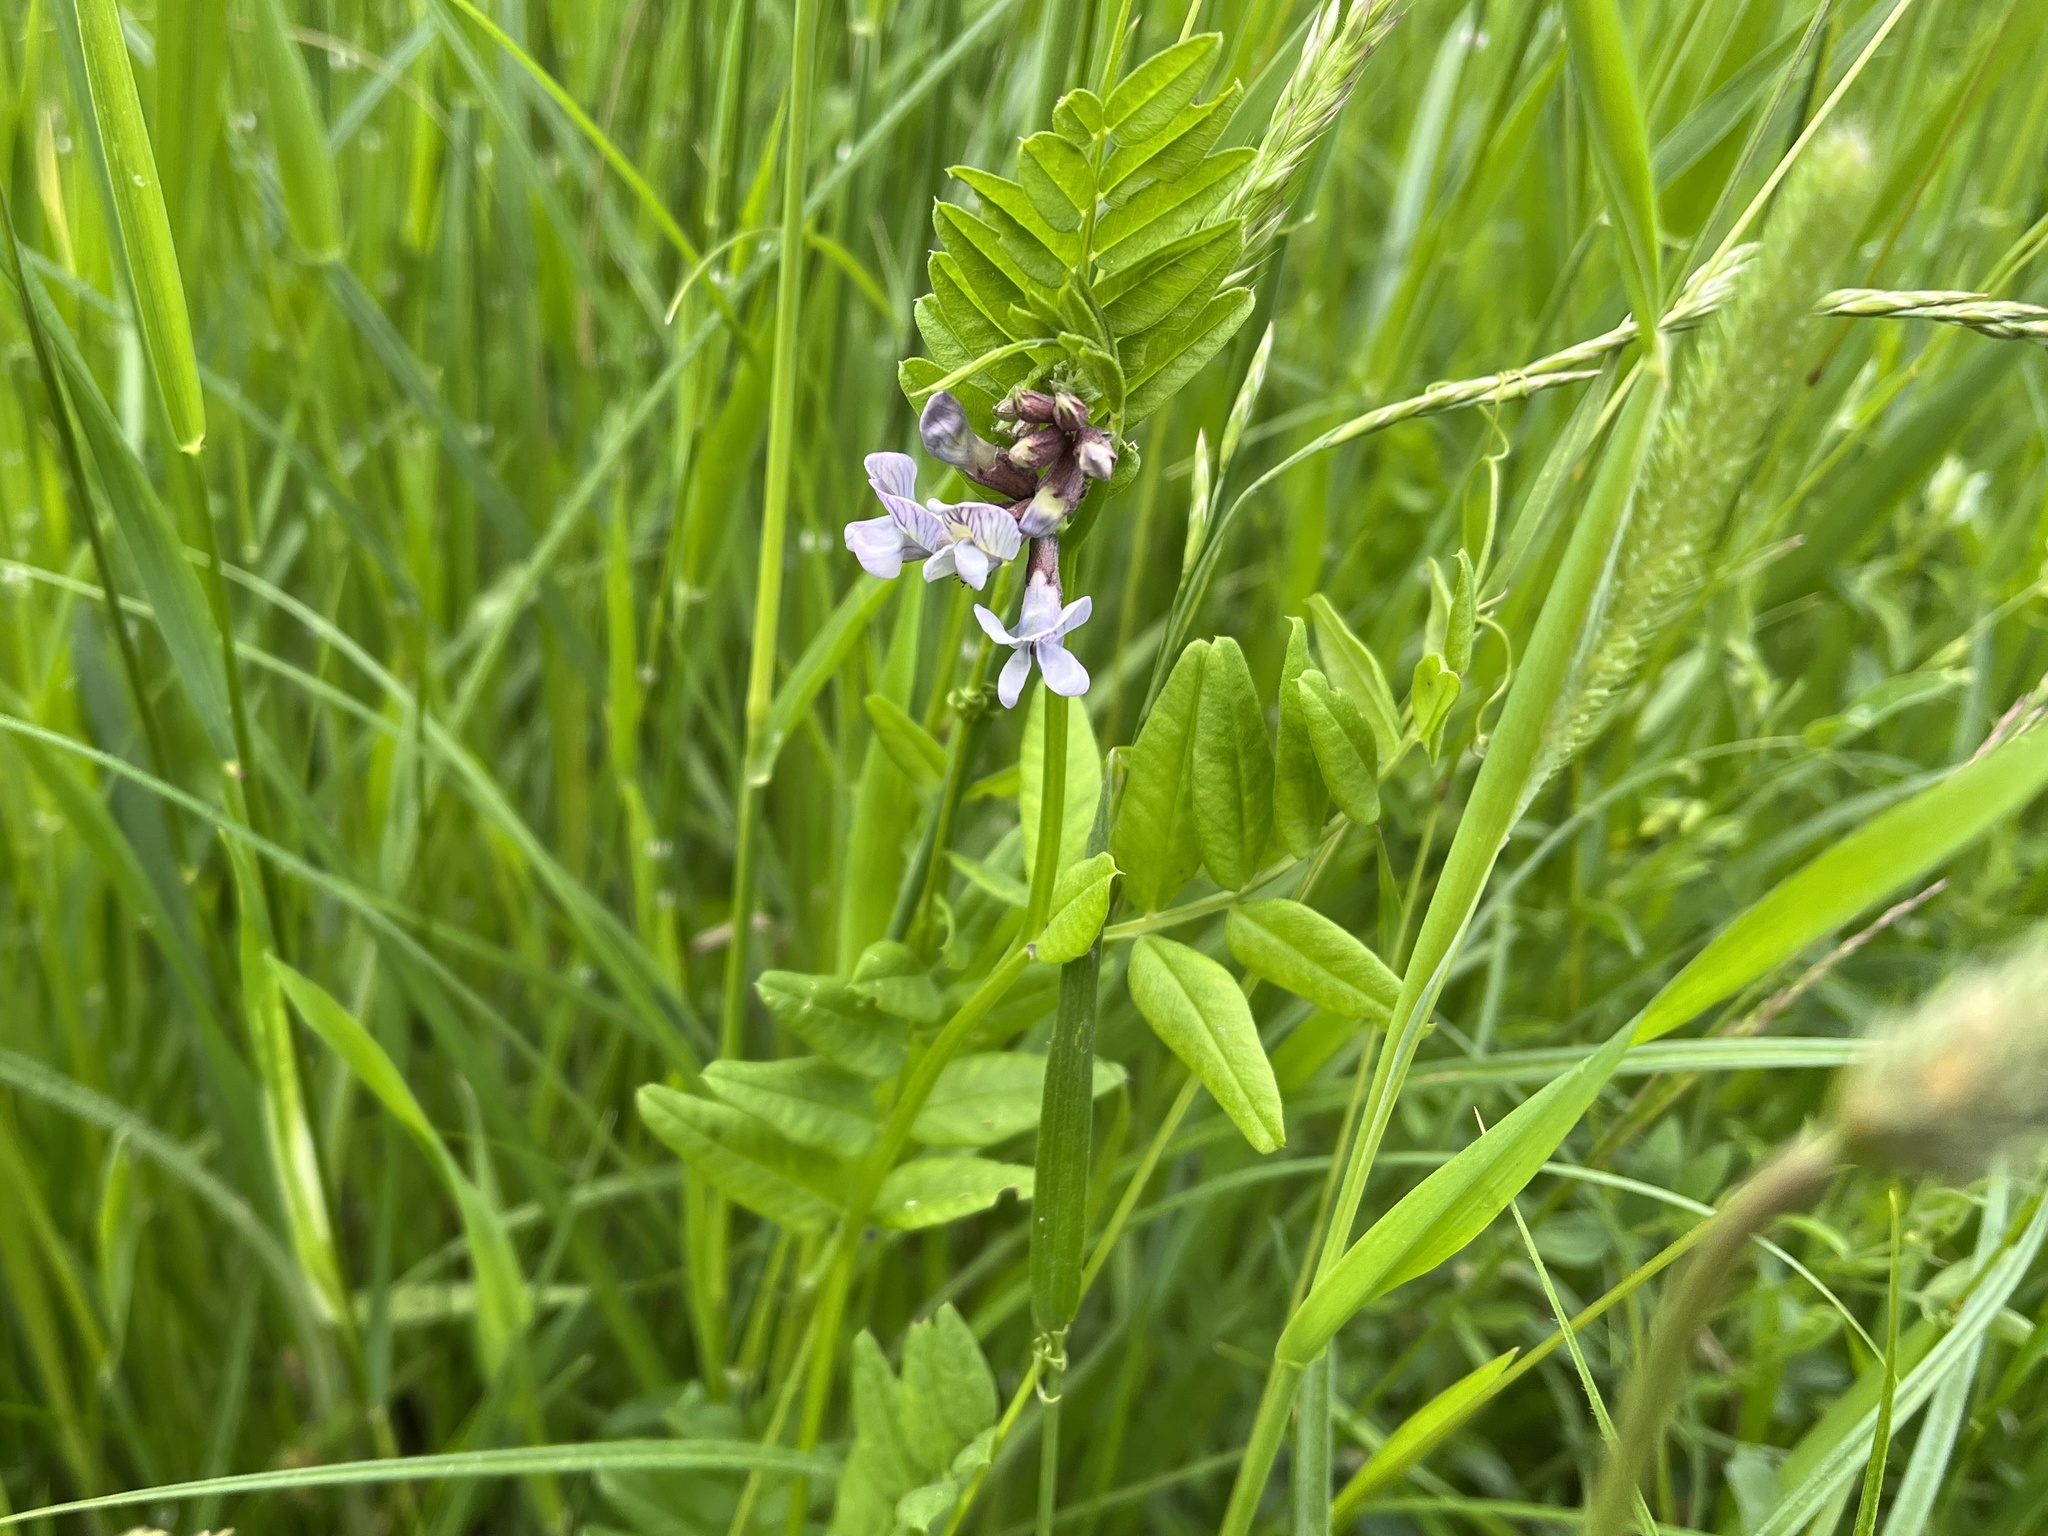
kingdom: Plantae
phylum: Tracheophyta
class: Magnoliopsida
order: Fabales
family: Fabaceae
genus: Vicia
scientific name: Vicia sepium
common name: Bush vetch
